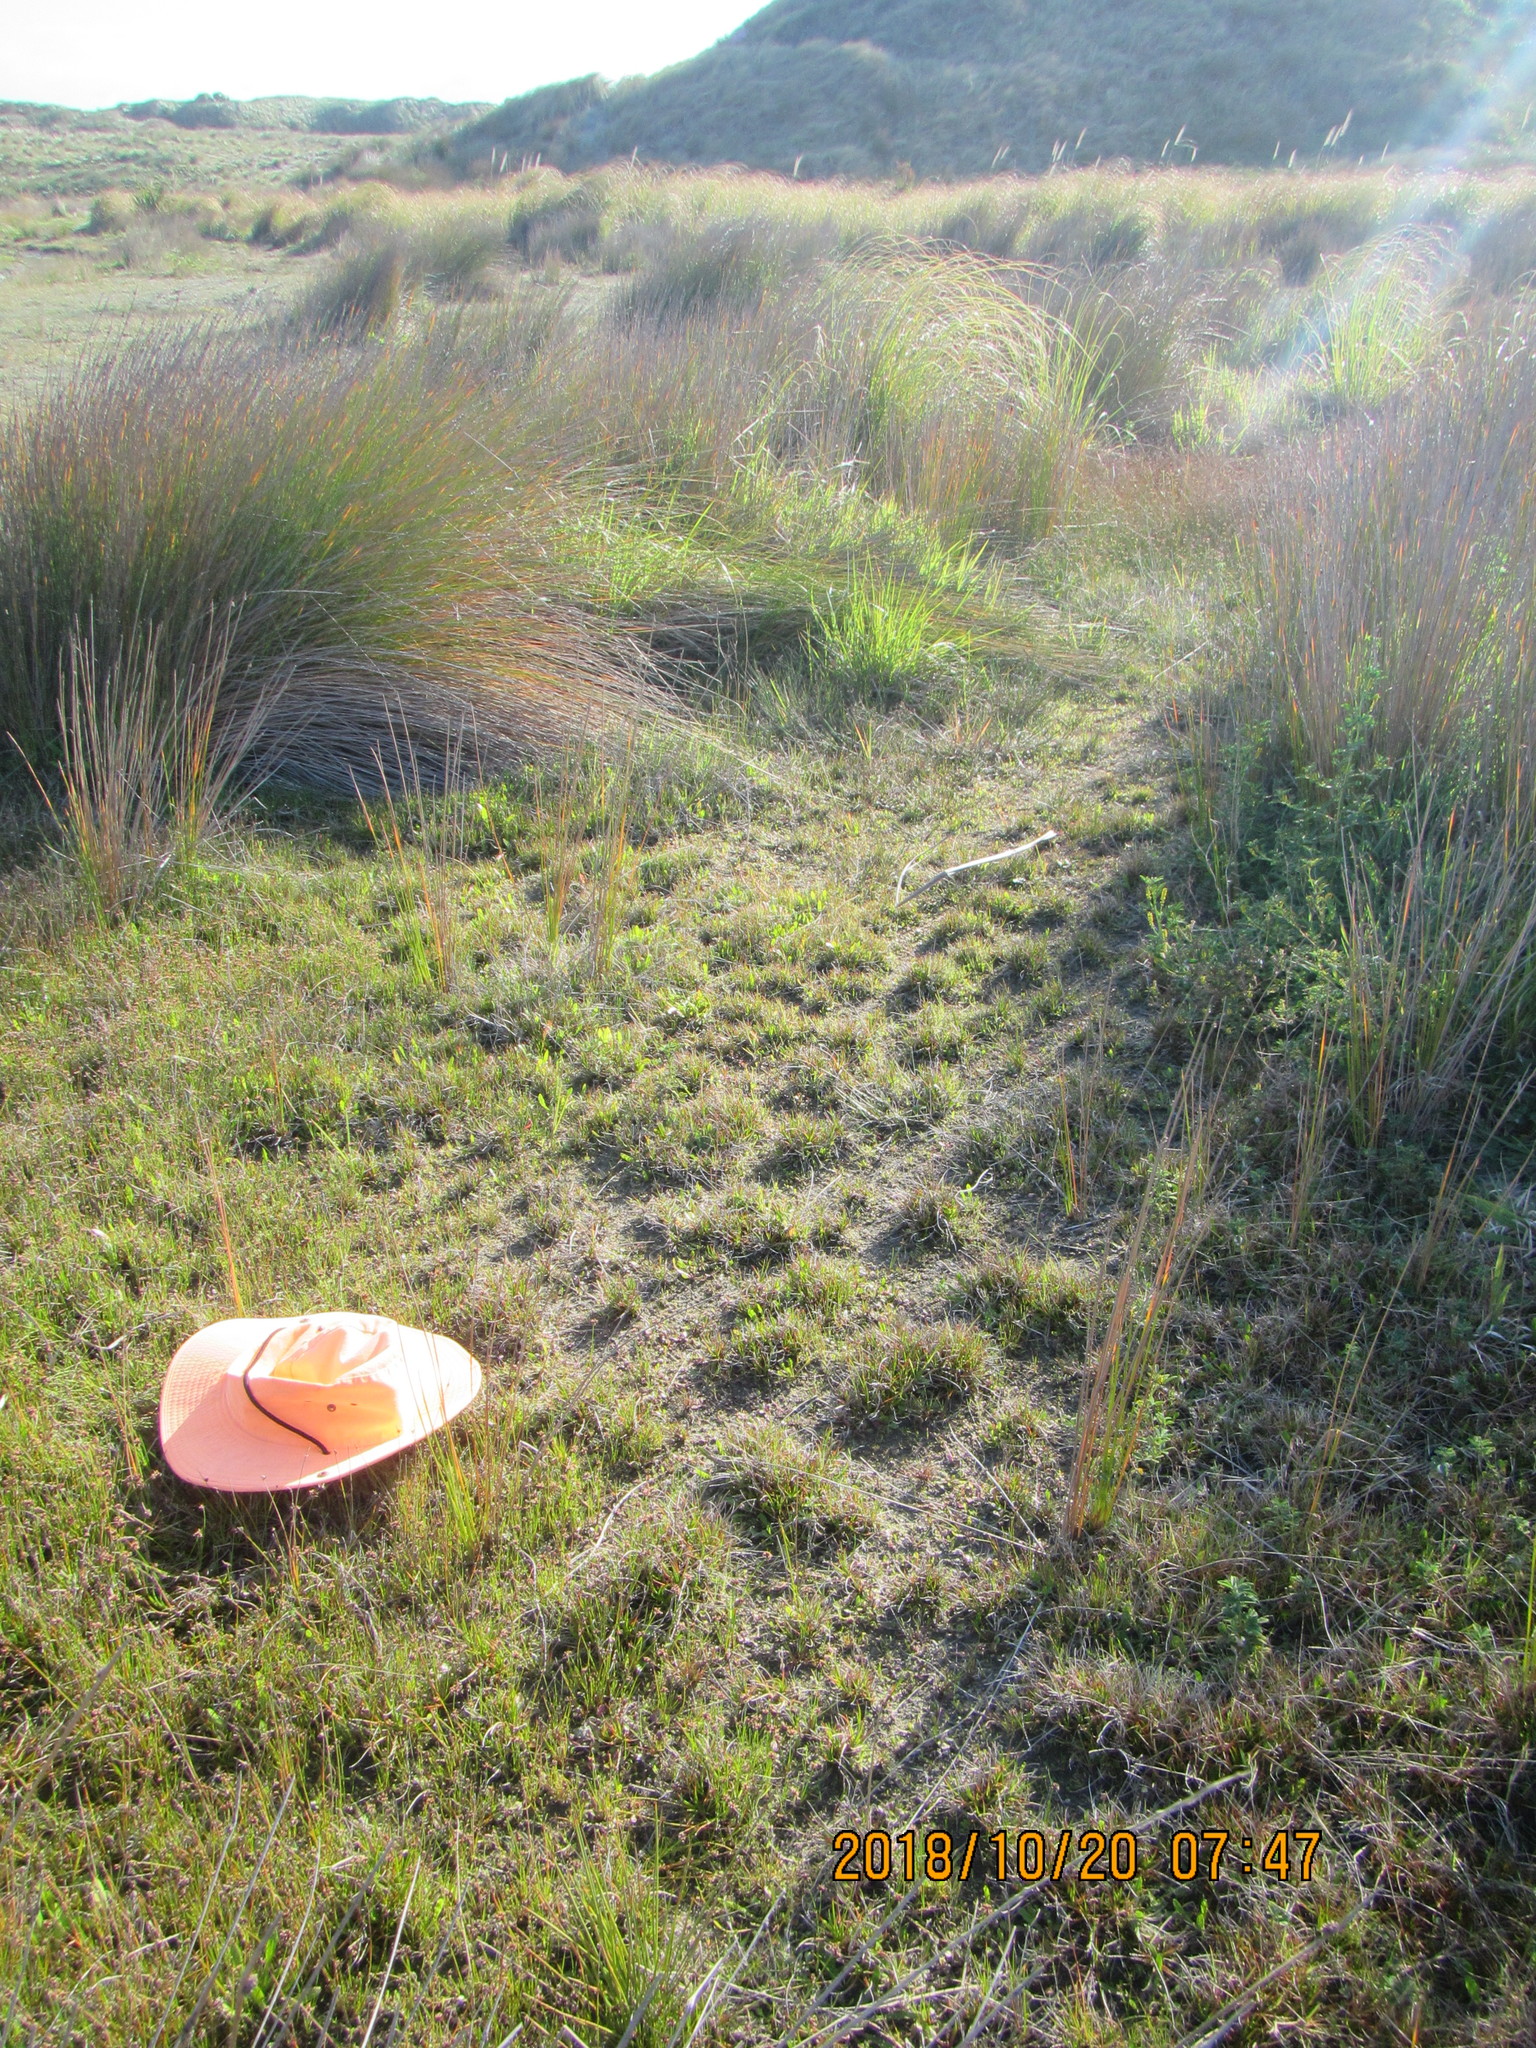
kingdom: Plantae
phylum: Tracheophyta
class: Liliopsida
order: Poales
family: Juncaceae
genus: Juncus
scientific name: Juncus caespiticius
